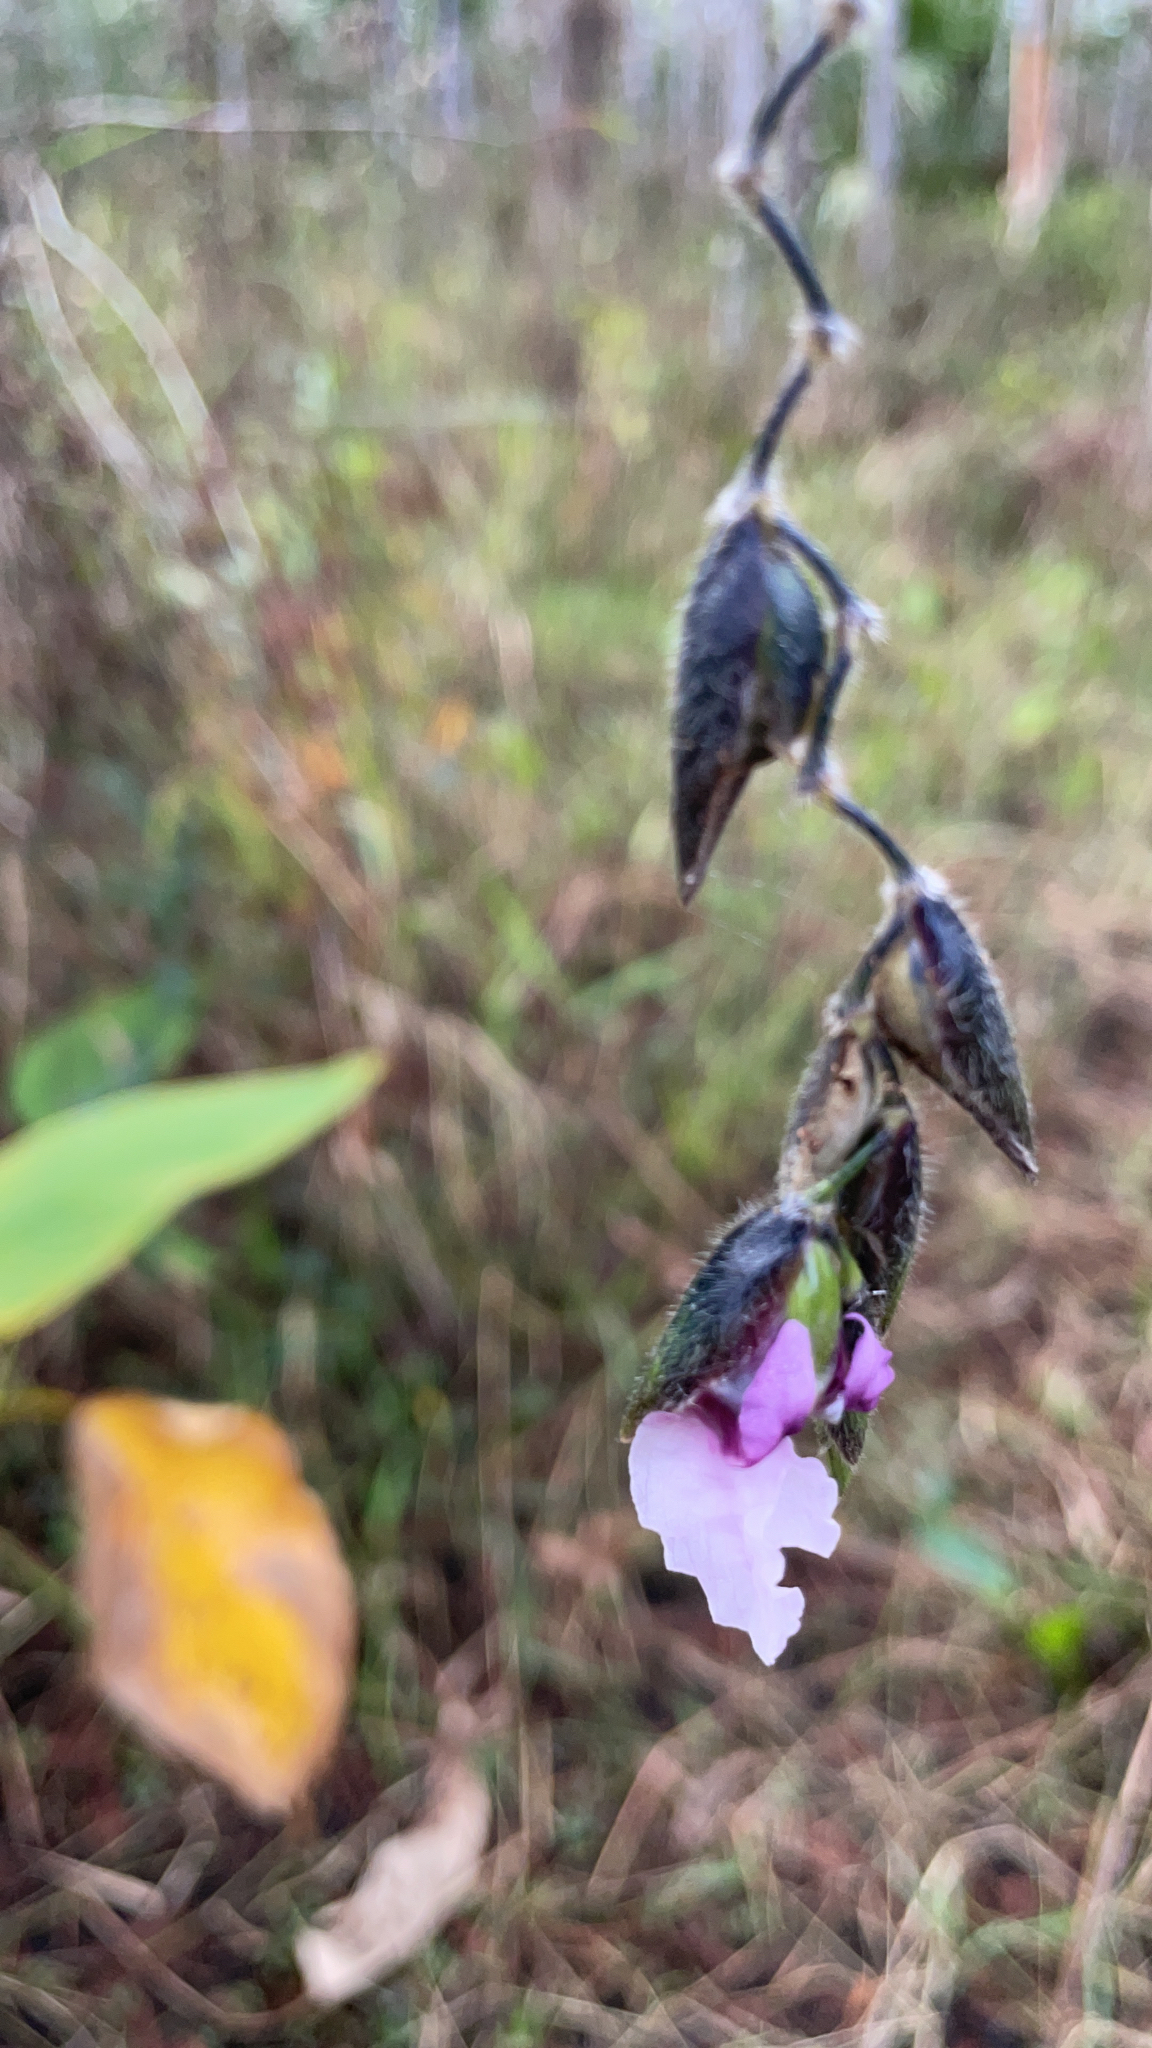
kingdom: Plantae
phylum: Tracheophyta
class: Liliopsida
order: Zingiberales
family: Marantaceae
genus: Thalia
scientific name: Thalia geniculata
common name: Arrowroot
